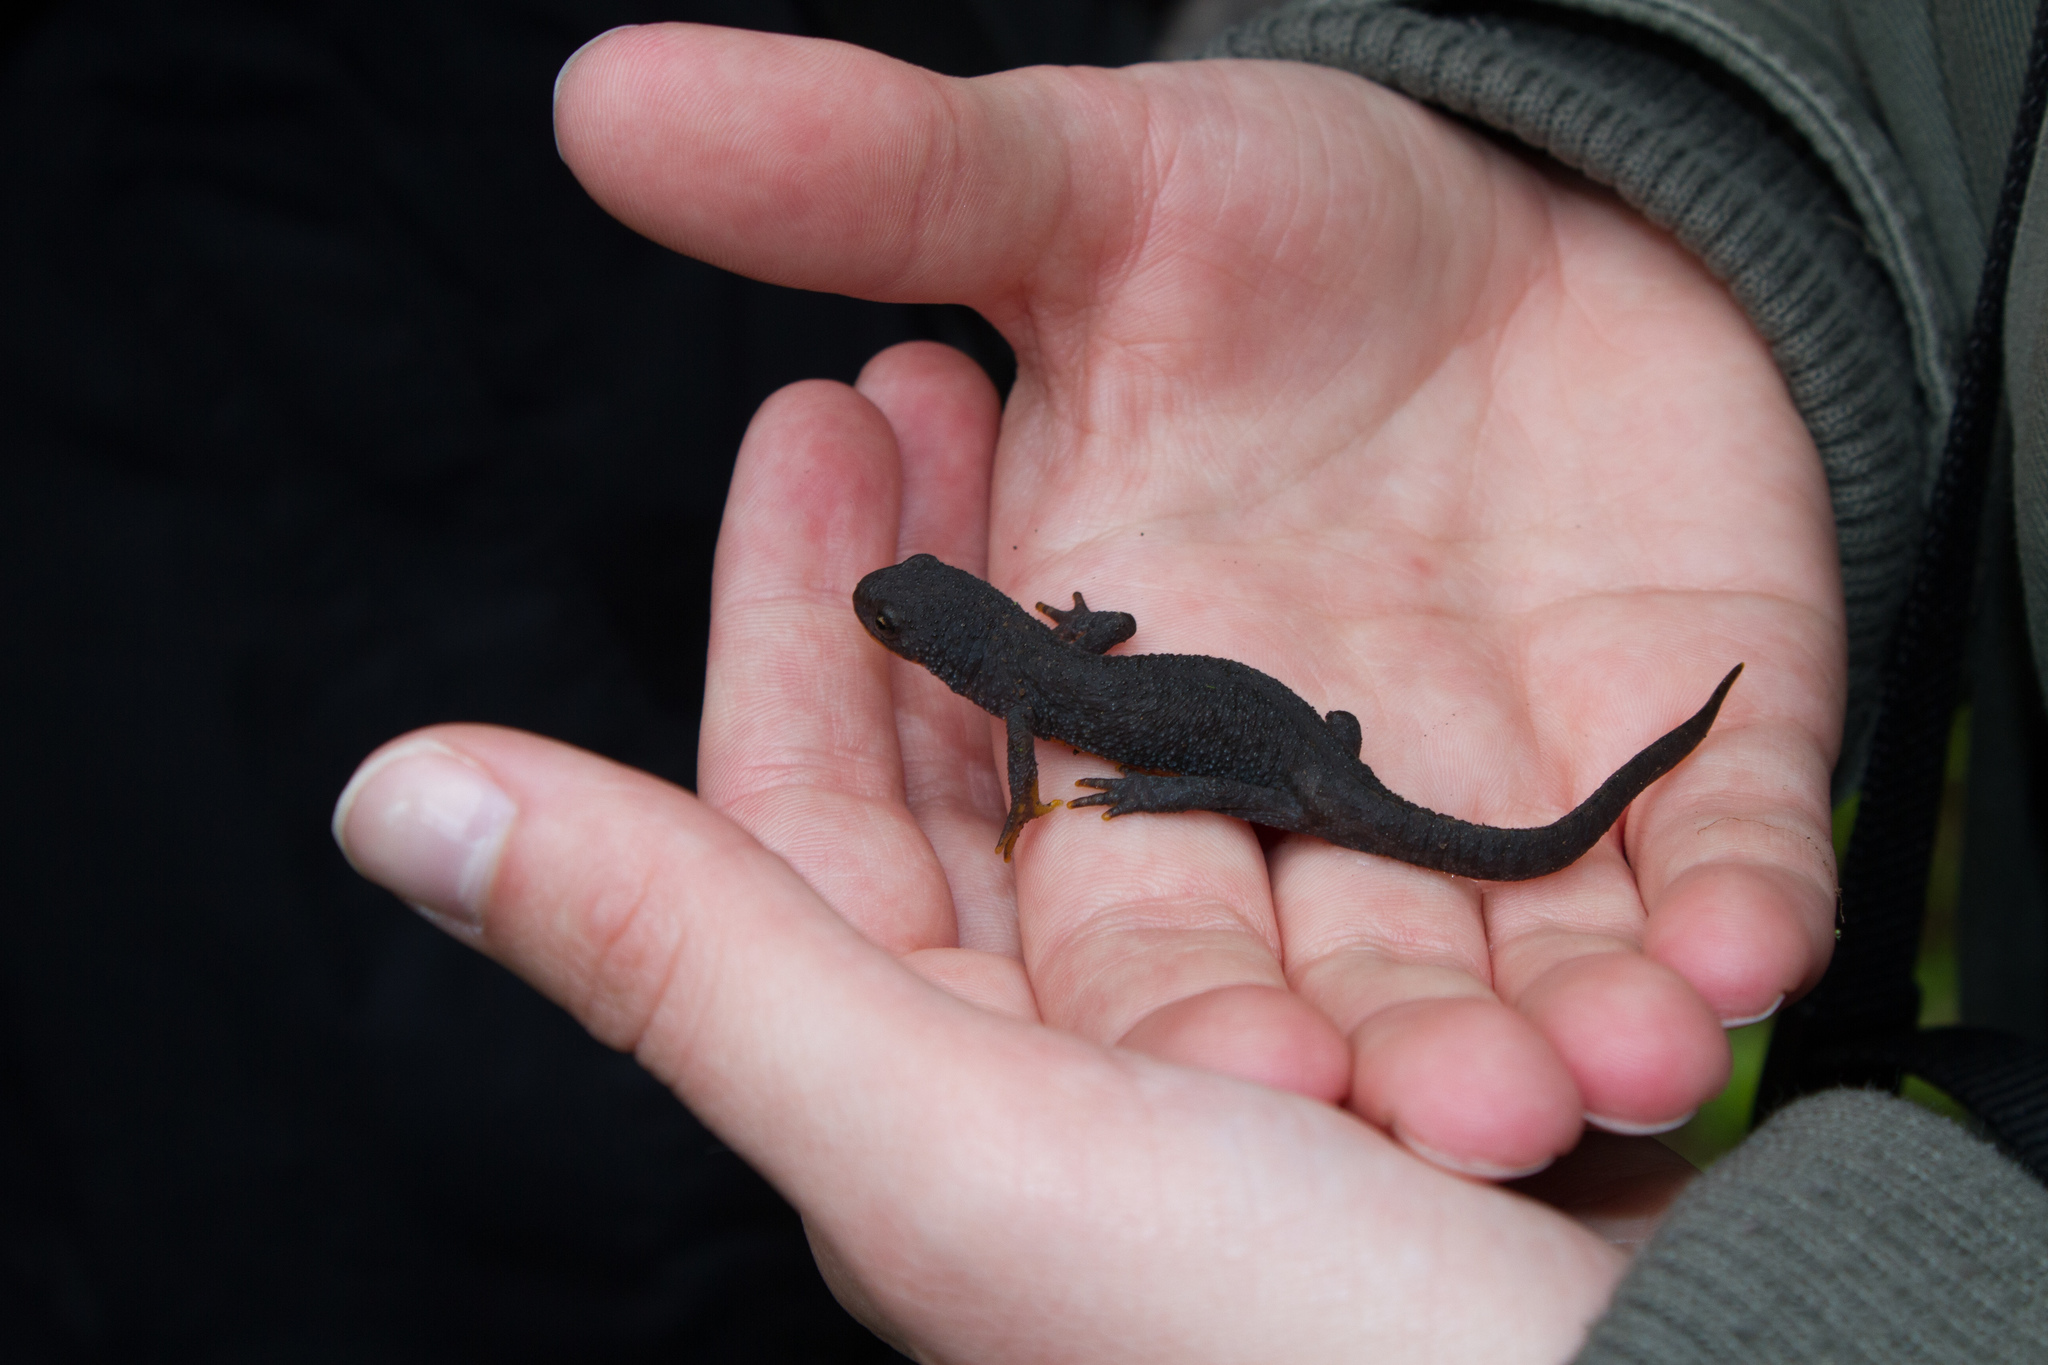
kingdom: Animalia
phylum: Chordata
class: Amphibia
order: Caudata
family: Salamandridae
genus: Ichthyosaura
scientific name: Ichthyosaura alpestris
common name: Alpine newt
